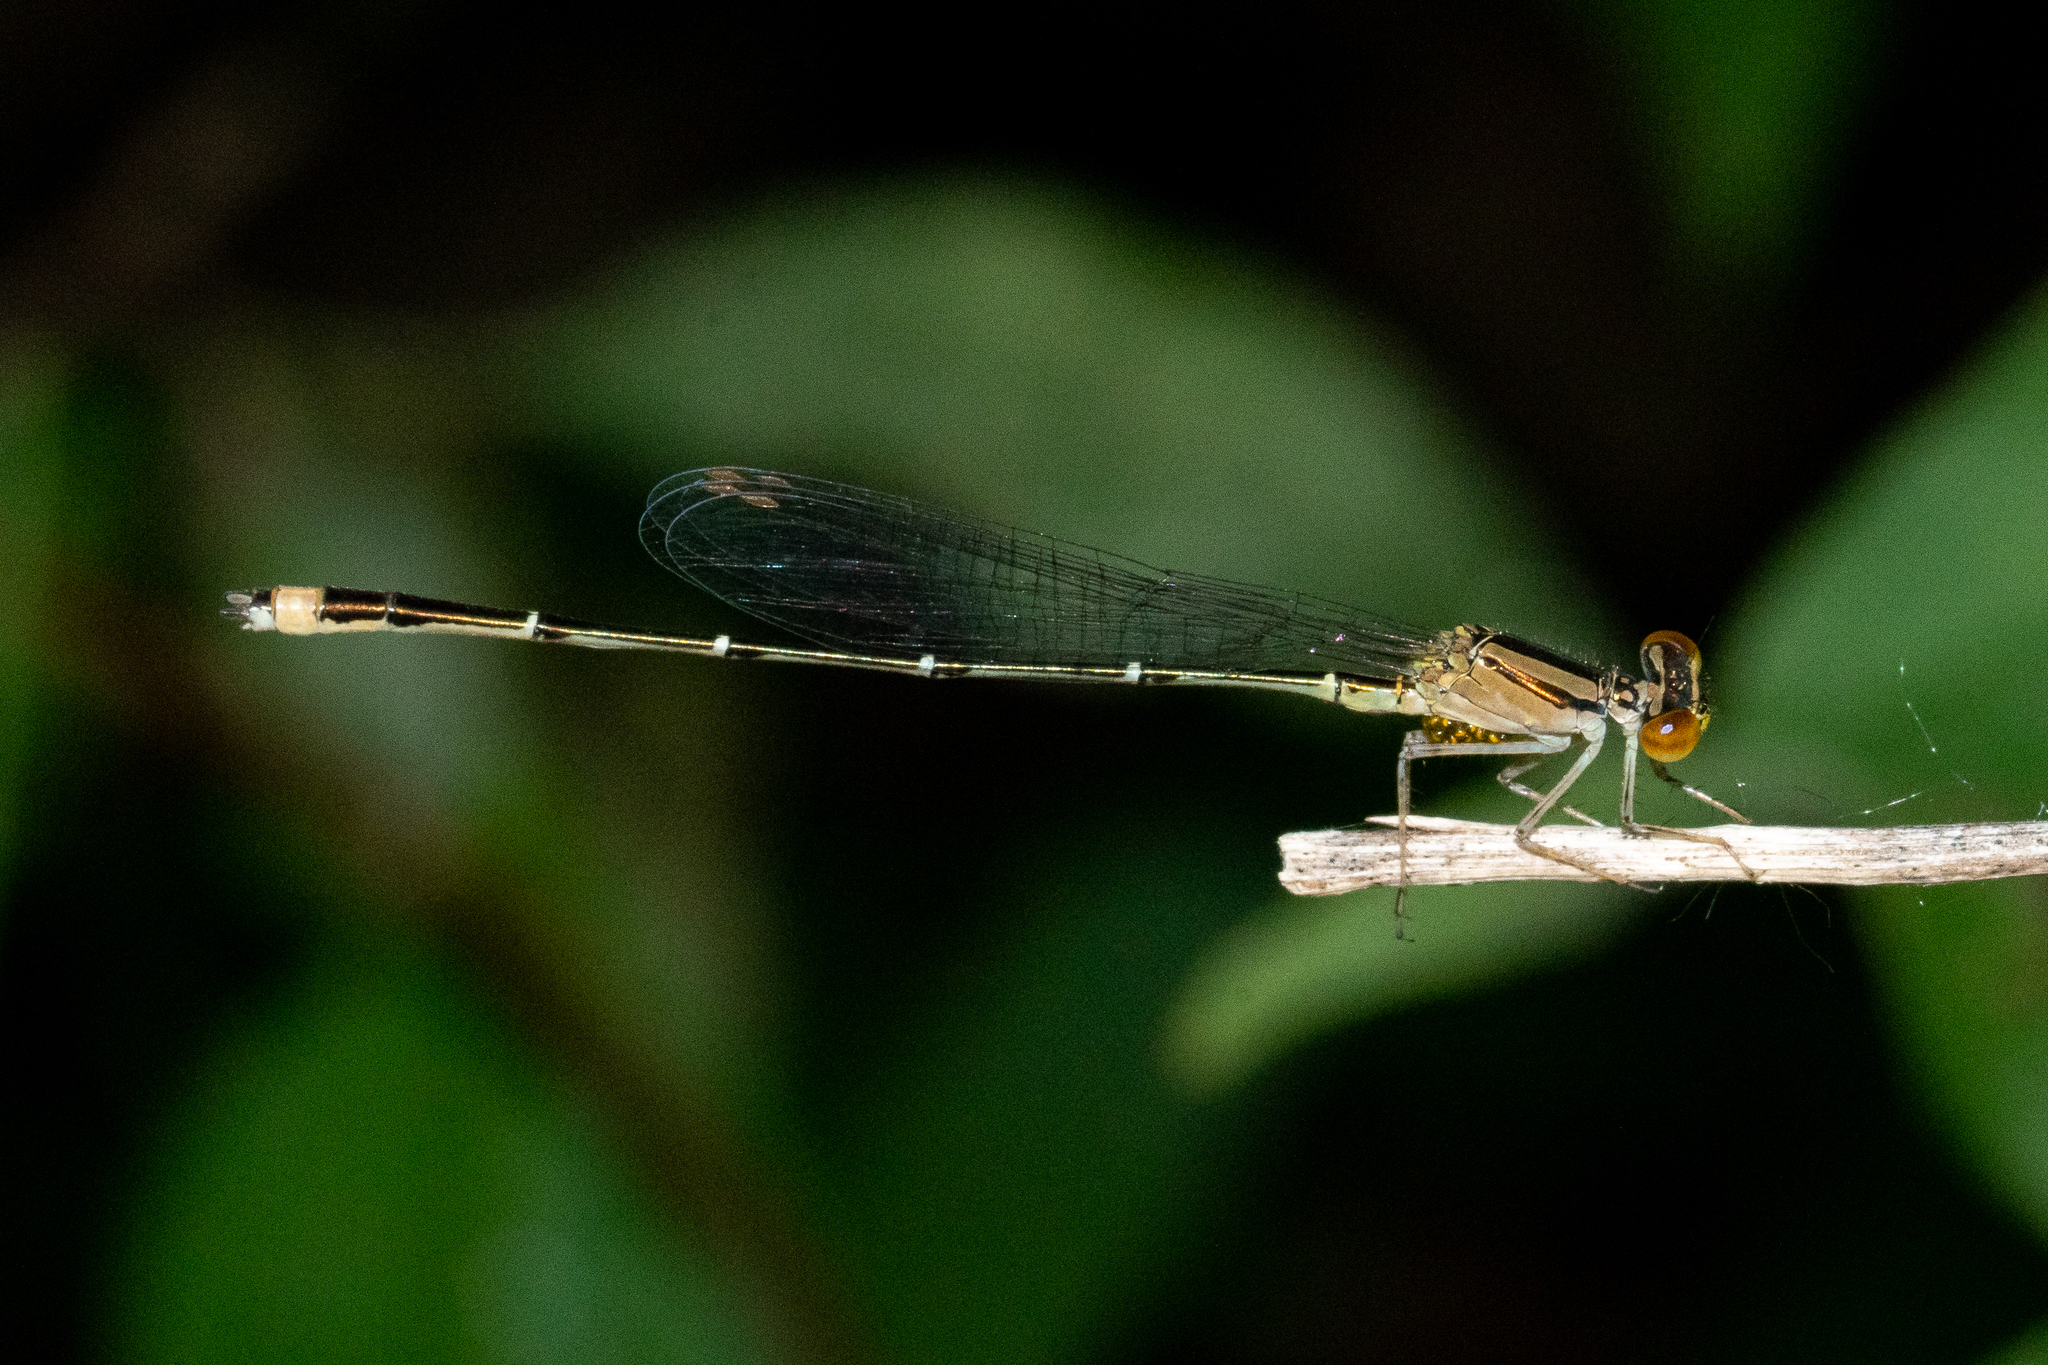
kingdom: Animalia
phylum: Arthropoda
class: Insecta
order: Odonata
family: Coenagrionidae
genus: Enallagma
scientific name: Enallagma signatum
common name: Orange bluet
